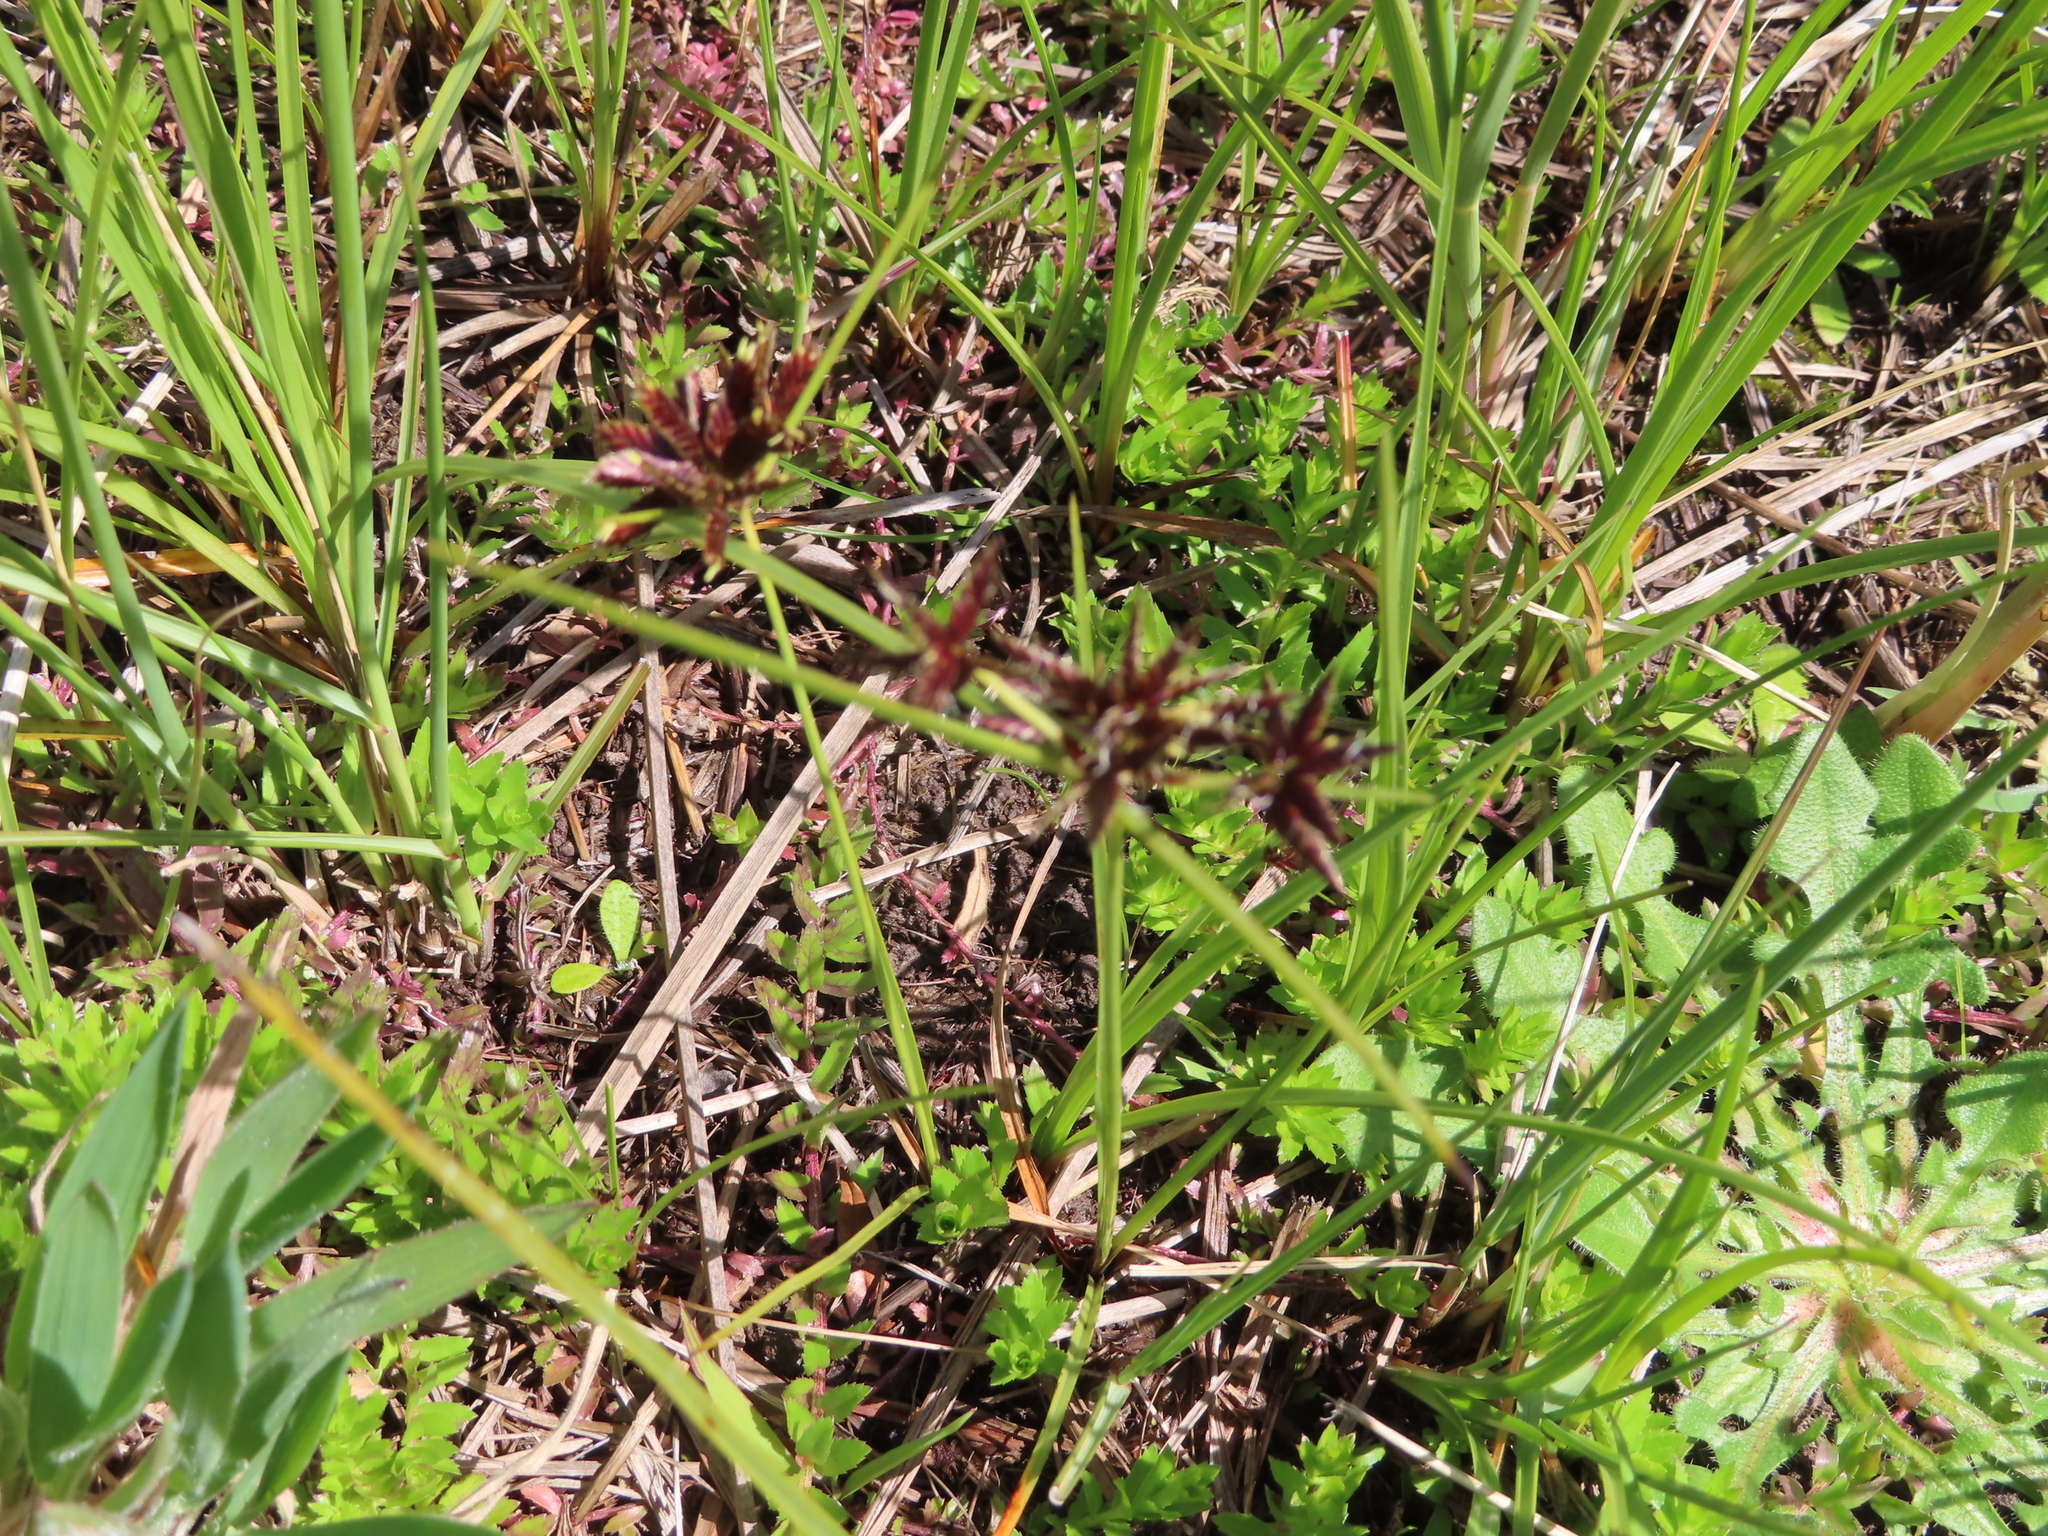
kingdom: Plantae
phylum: Tracheophyta
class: Liliopsida
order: Poales
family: Cyperaceae
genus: Cyperus
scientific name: Cyperus mundii
